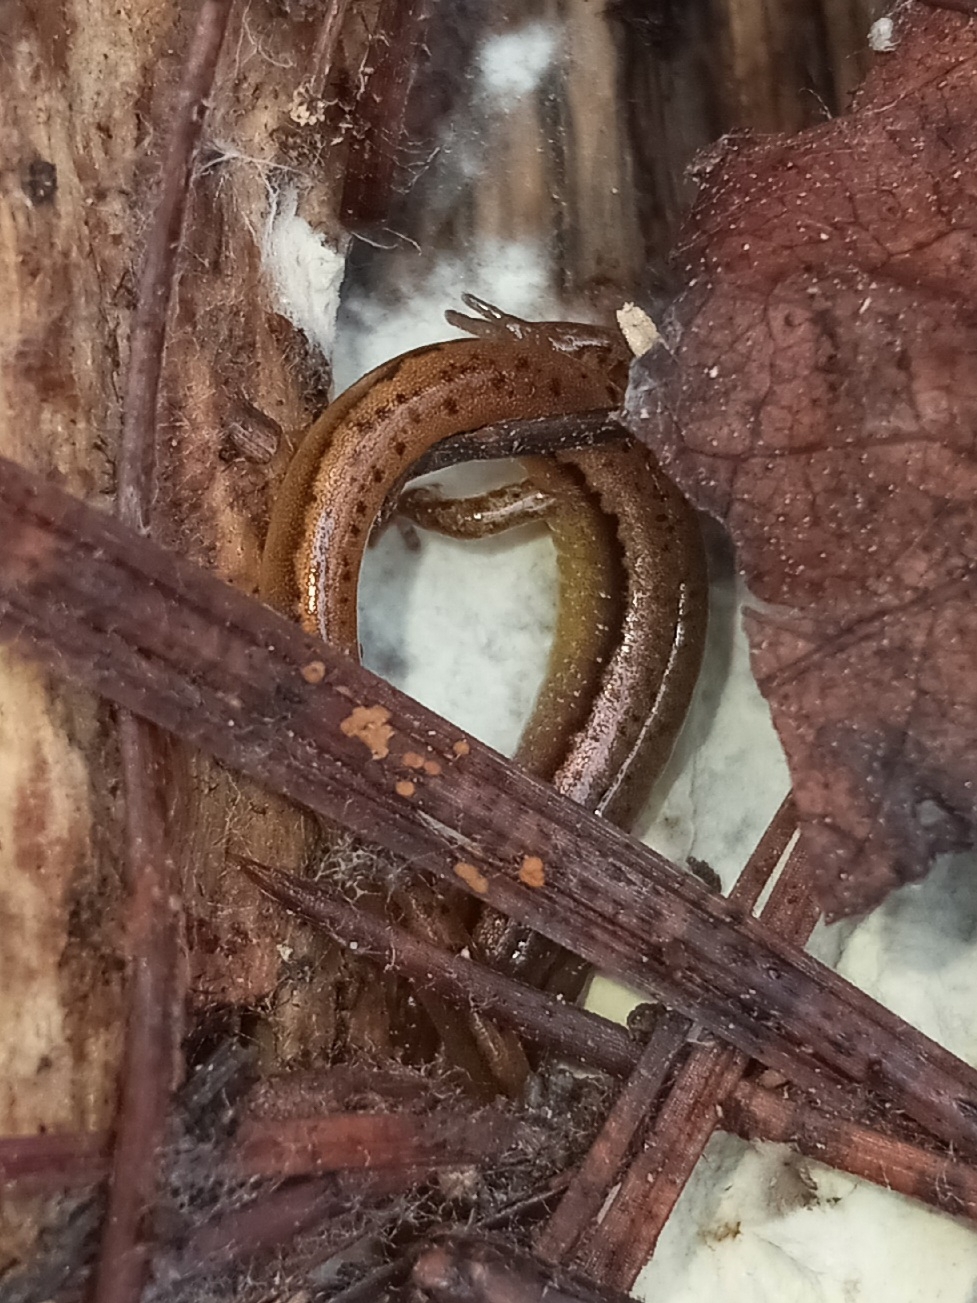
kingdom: Animalia
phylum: Chordata
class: Amphibia
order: Caudata
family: Plethodontidae
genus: Eurycea
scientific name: Eurycea chamberlaini
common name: Chamberlain's dwarf salamander
